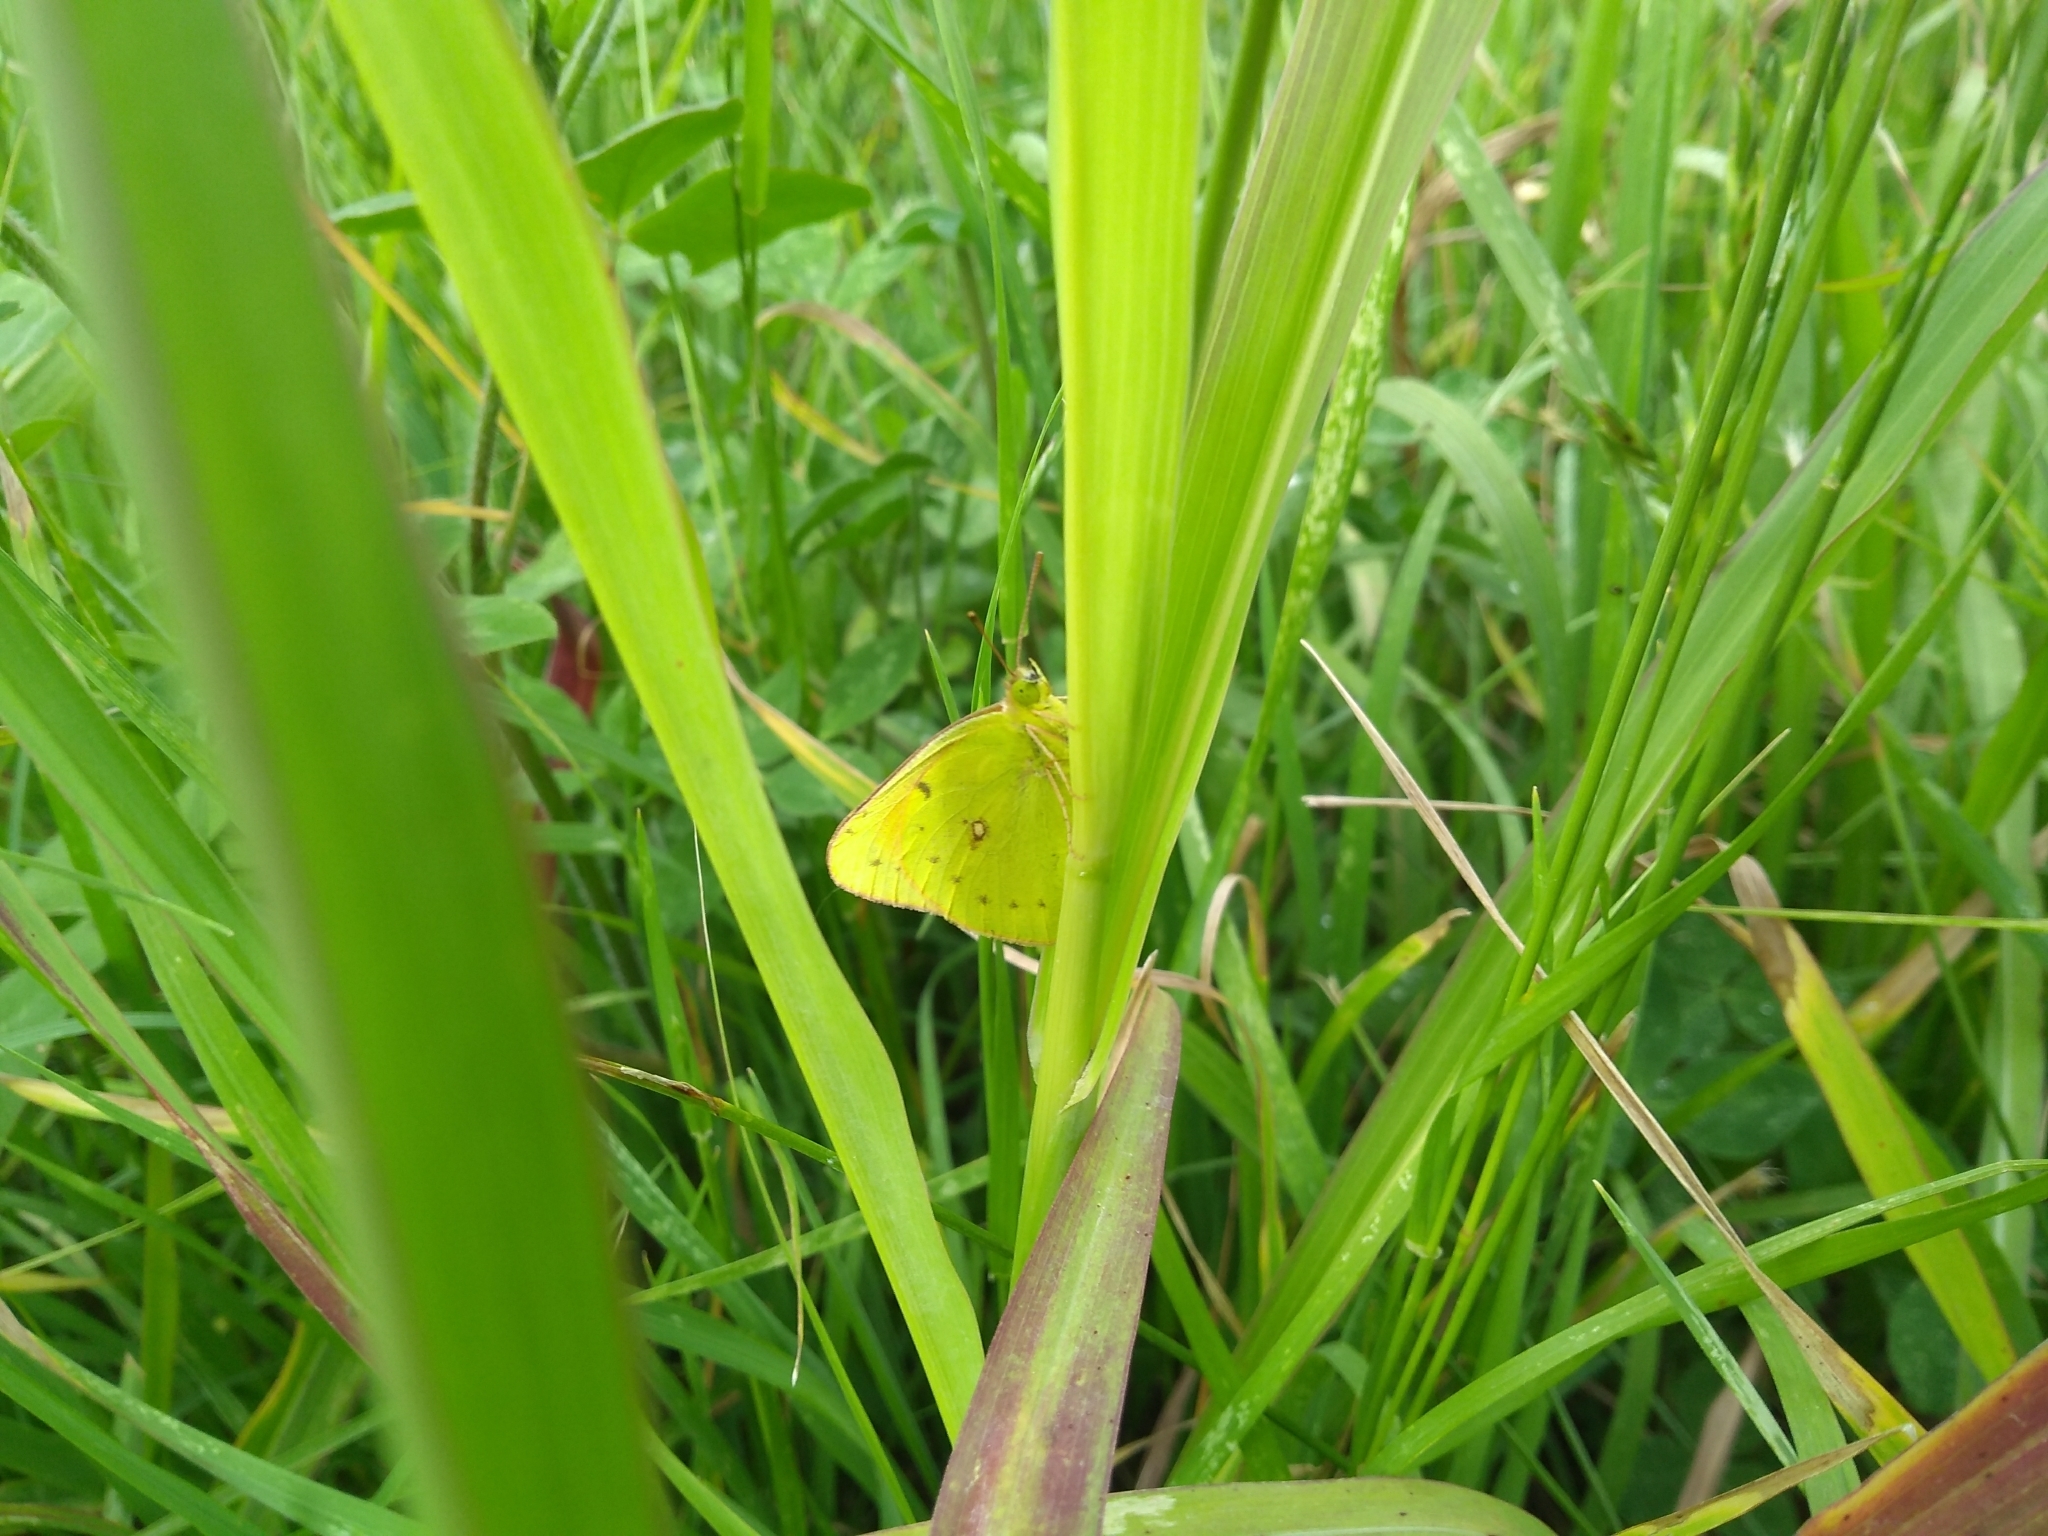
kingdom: Animalia
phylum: Arthropoda
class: Insecta
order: Lepidoptera
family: Pieridae
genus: Colias
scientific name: Colias lesbia
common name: Lesbia clouded yellow
